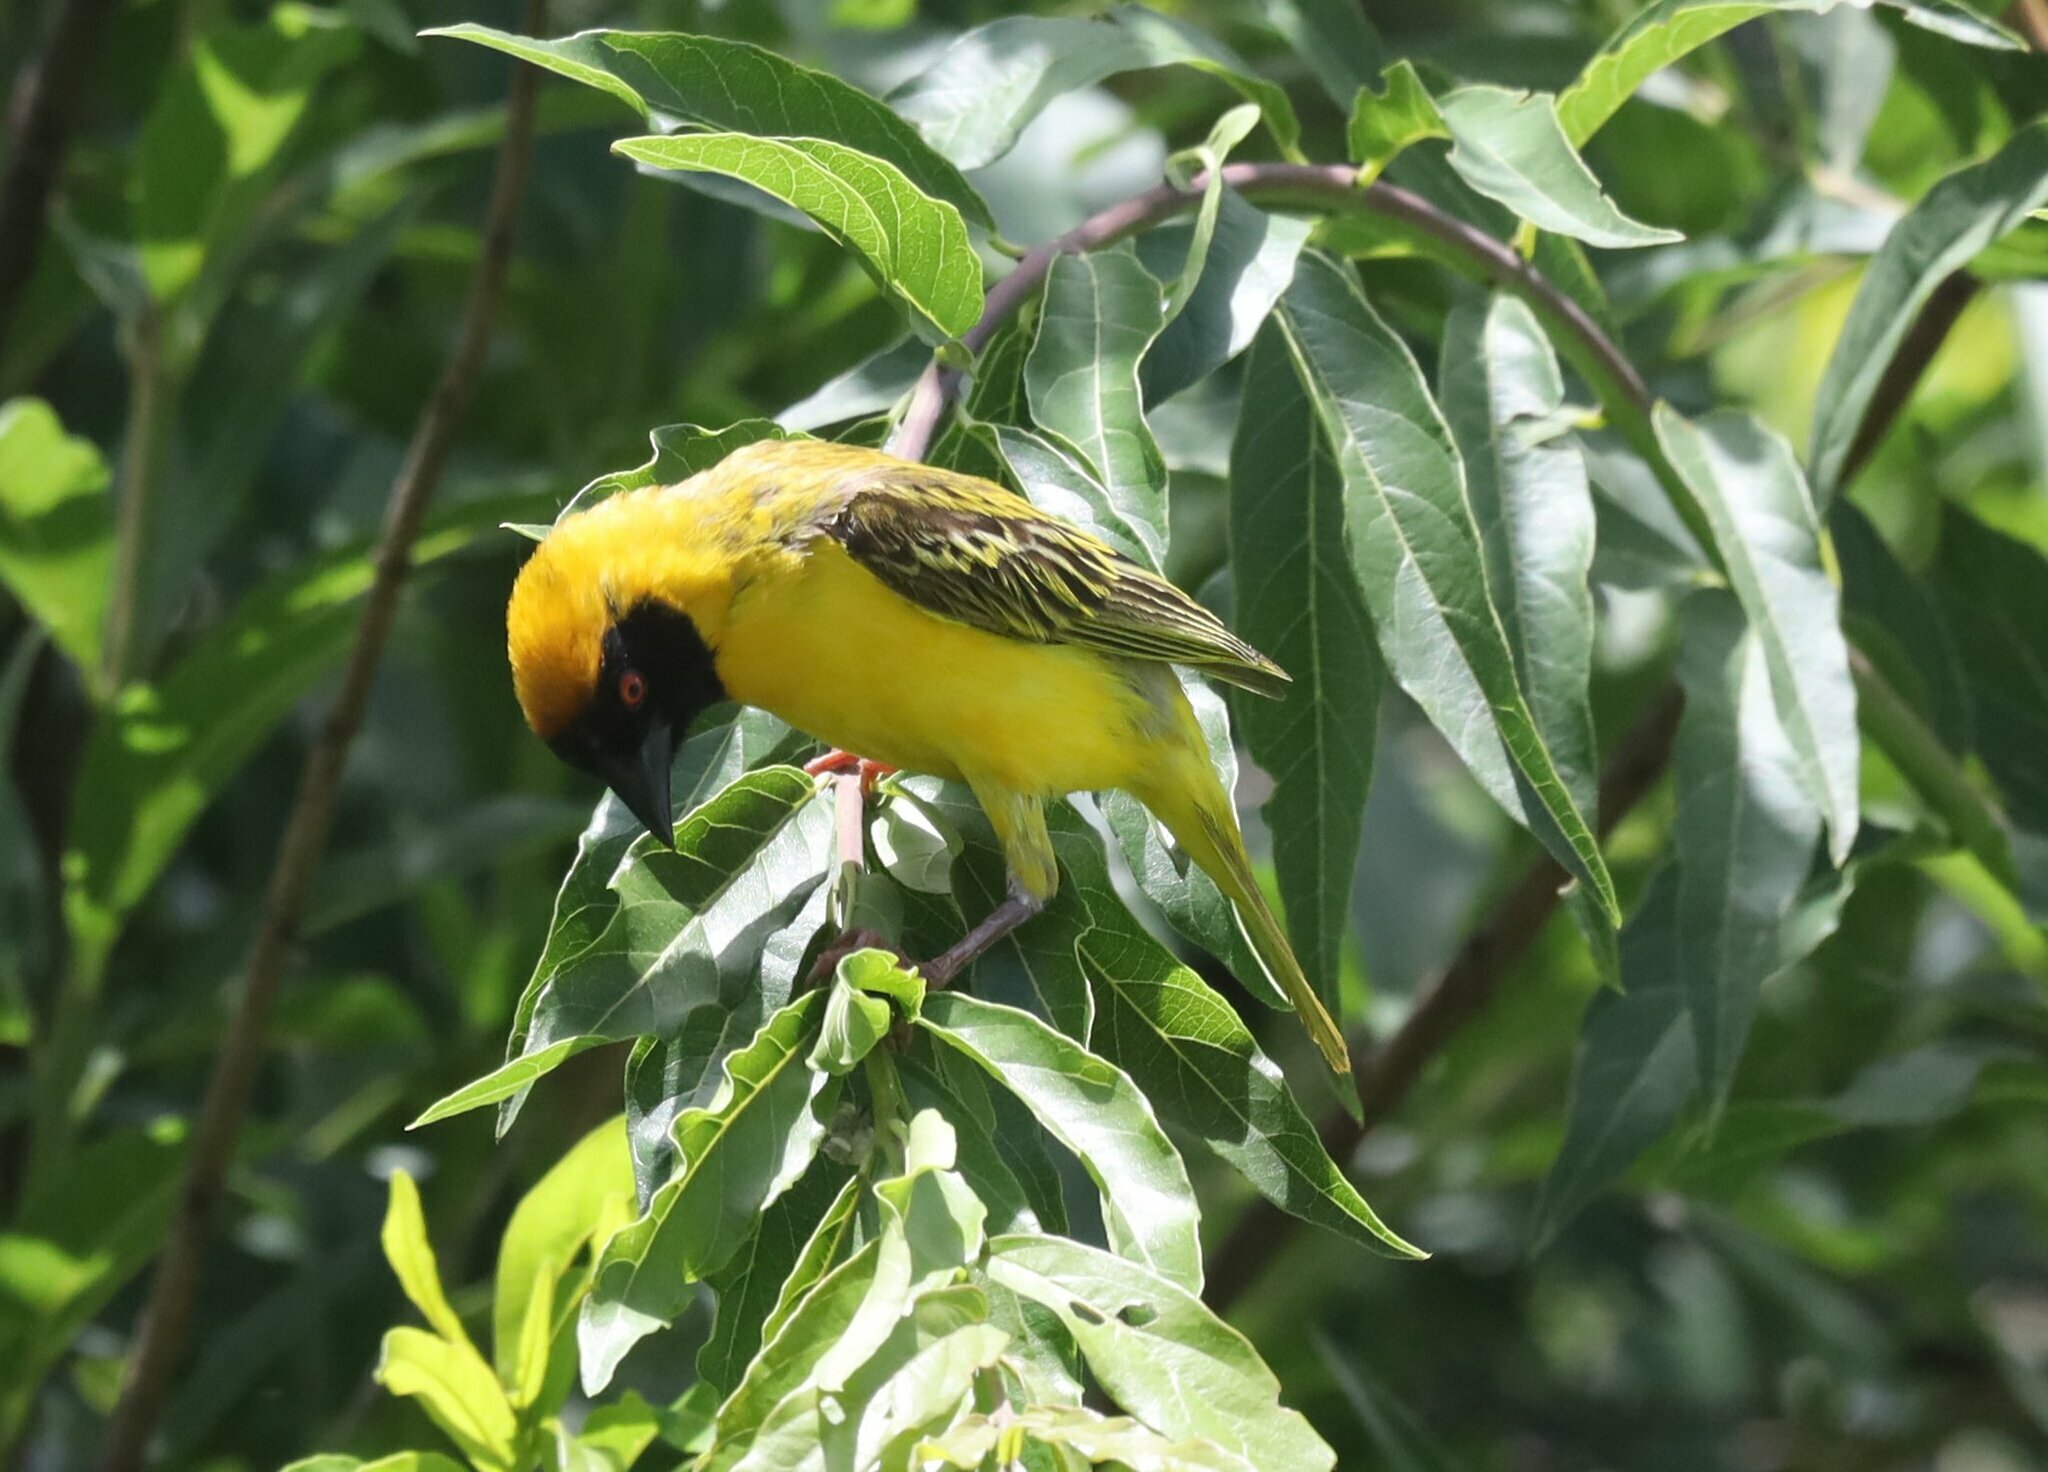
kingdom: Animalia
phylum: Chordata
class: Aves
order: Passeriformes
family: Ploceidae
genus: Ploceus
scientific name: Ploceus velatus
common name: Southern masked weaver
